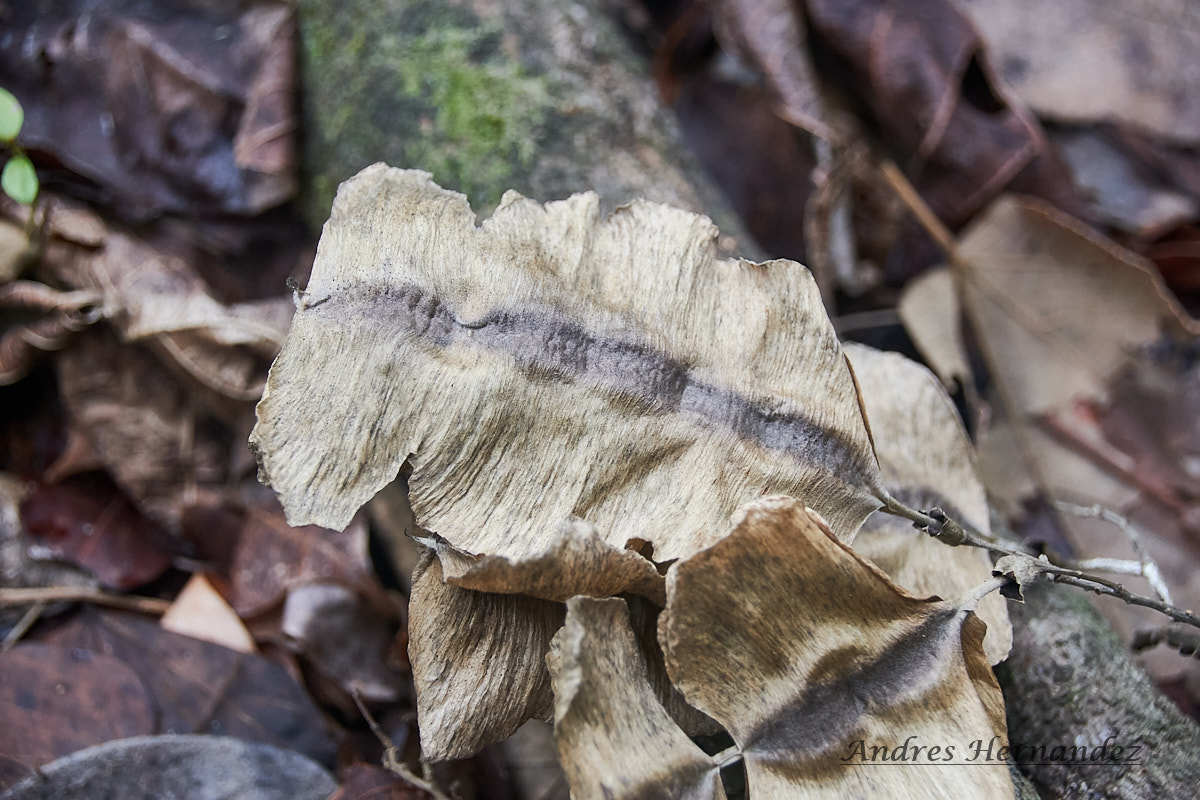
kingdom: Plantae
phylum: Tracheophyta
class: Magnoliopsida
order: Fabales
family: Fabaceae
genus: Piscidia
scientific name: Piscidia piscipula
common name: Florida fishpoison tree
